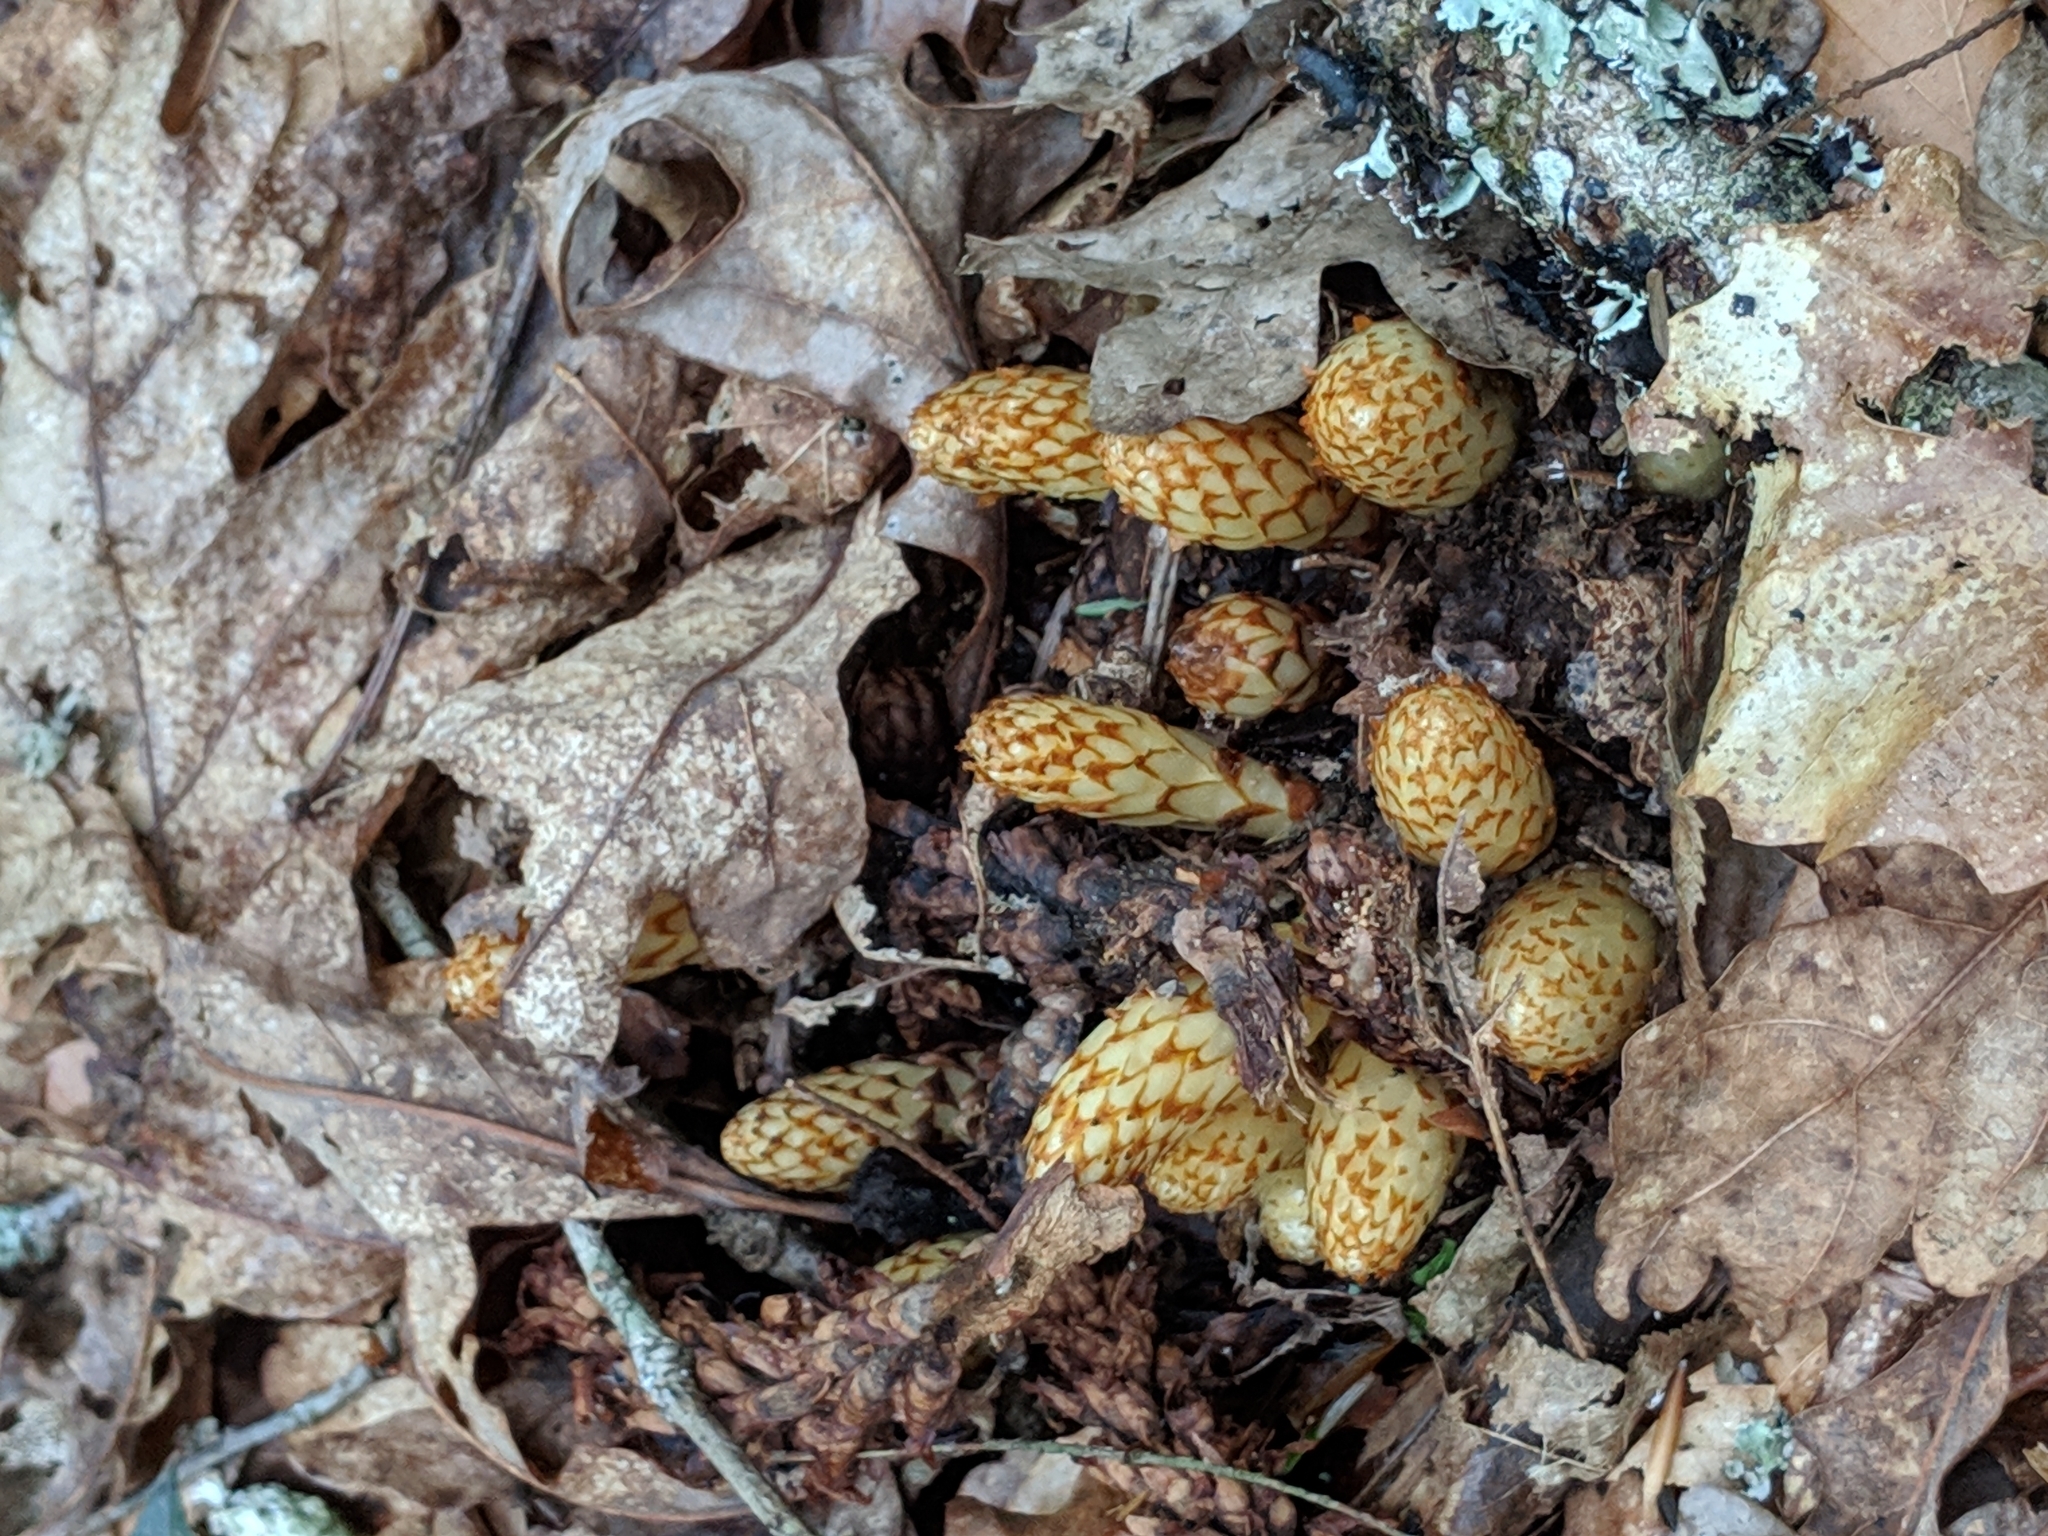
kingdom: Plantae
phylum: Tracheophyta
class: Magnoliopsida
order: Lamiales
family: Orobanchaceae
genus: Conopholis
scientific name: Conopholis americana
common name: American cancer-root
